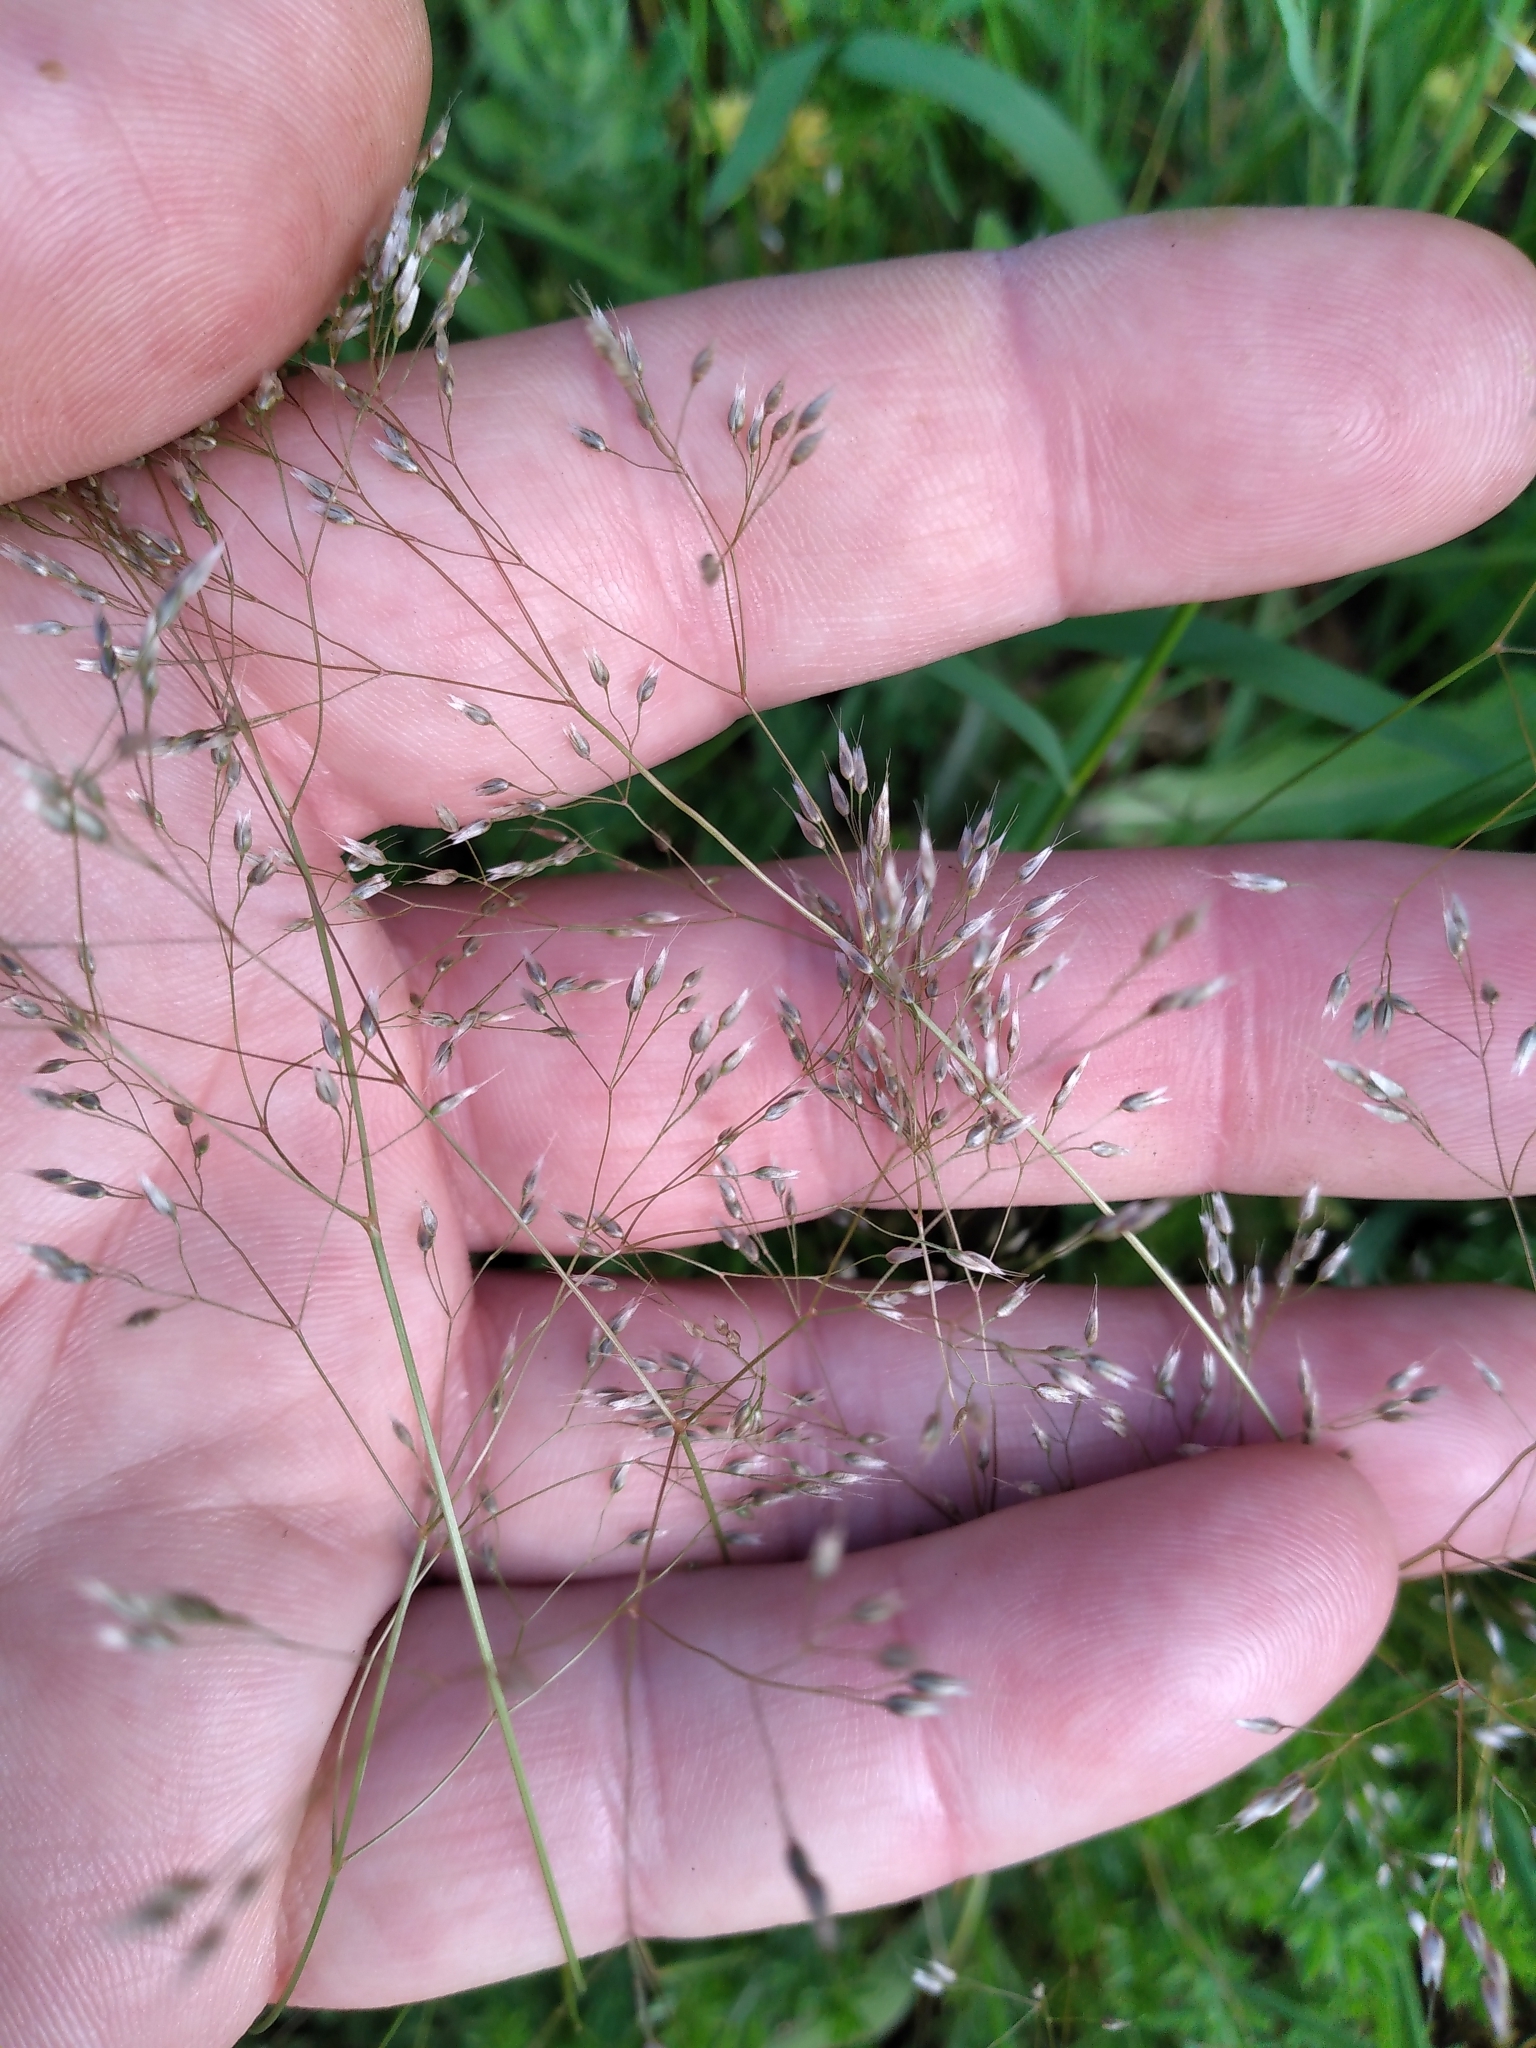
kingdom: Plantae
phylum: Tracheophyta
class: Liliopsida
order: Poales
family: Poaceae
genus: Aira
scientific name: Aira caryophyllea
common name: Silver hairgrass
